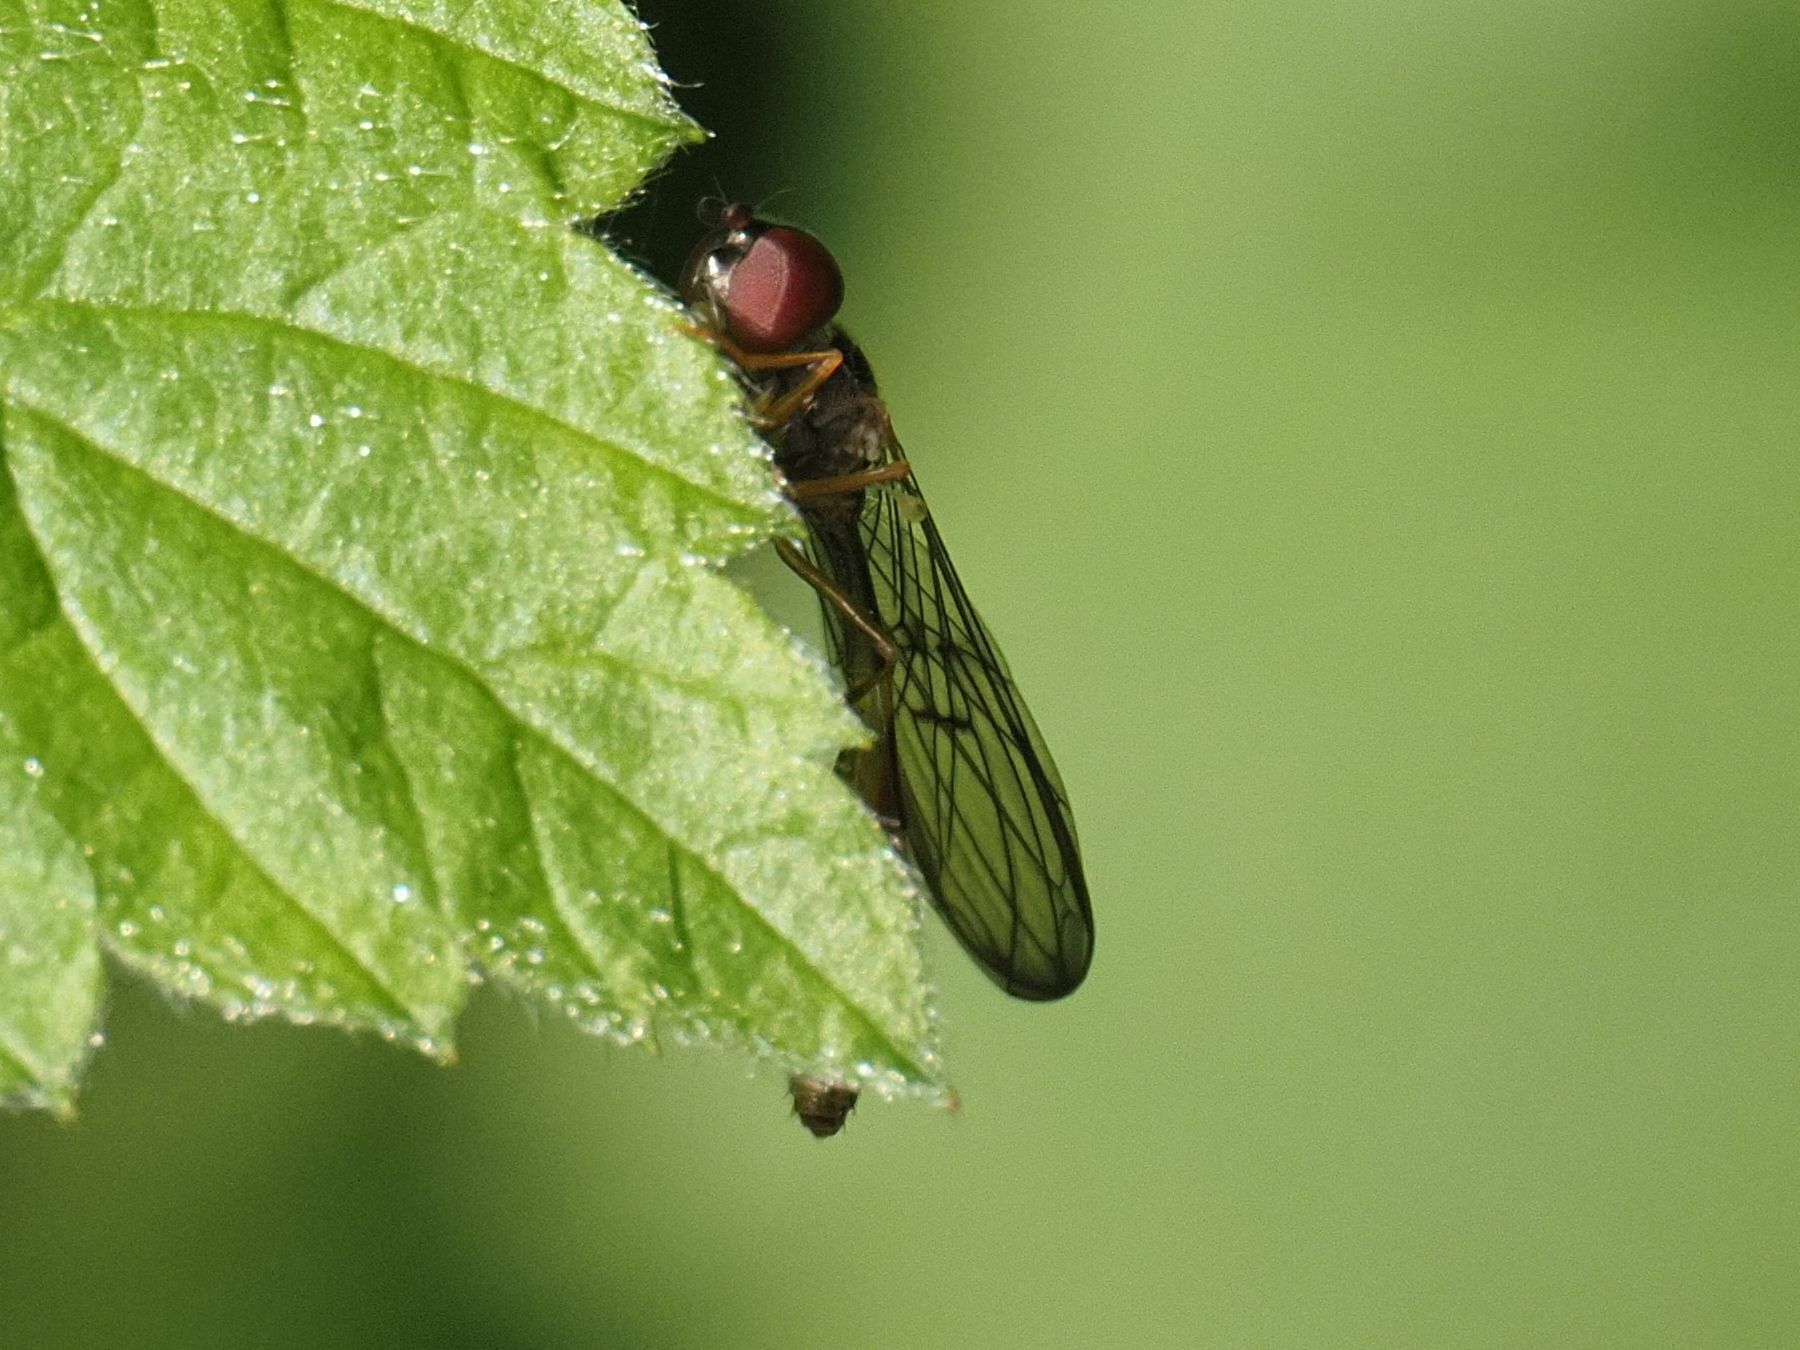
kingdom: Animalia
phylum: Arthropoda
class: Insecta
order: Diptera
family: Syrphidae
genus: Baccha
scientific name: Baccha elongata
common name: Common dainty
